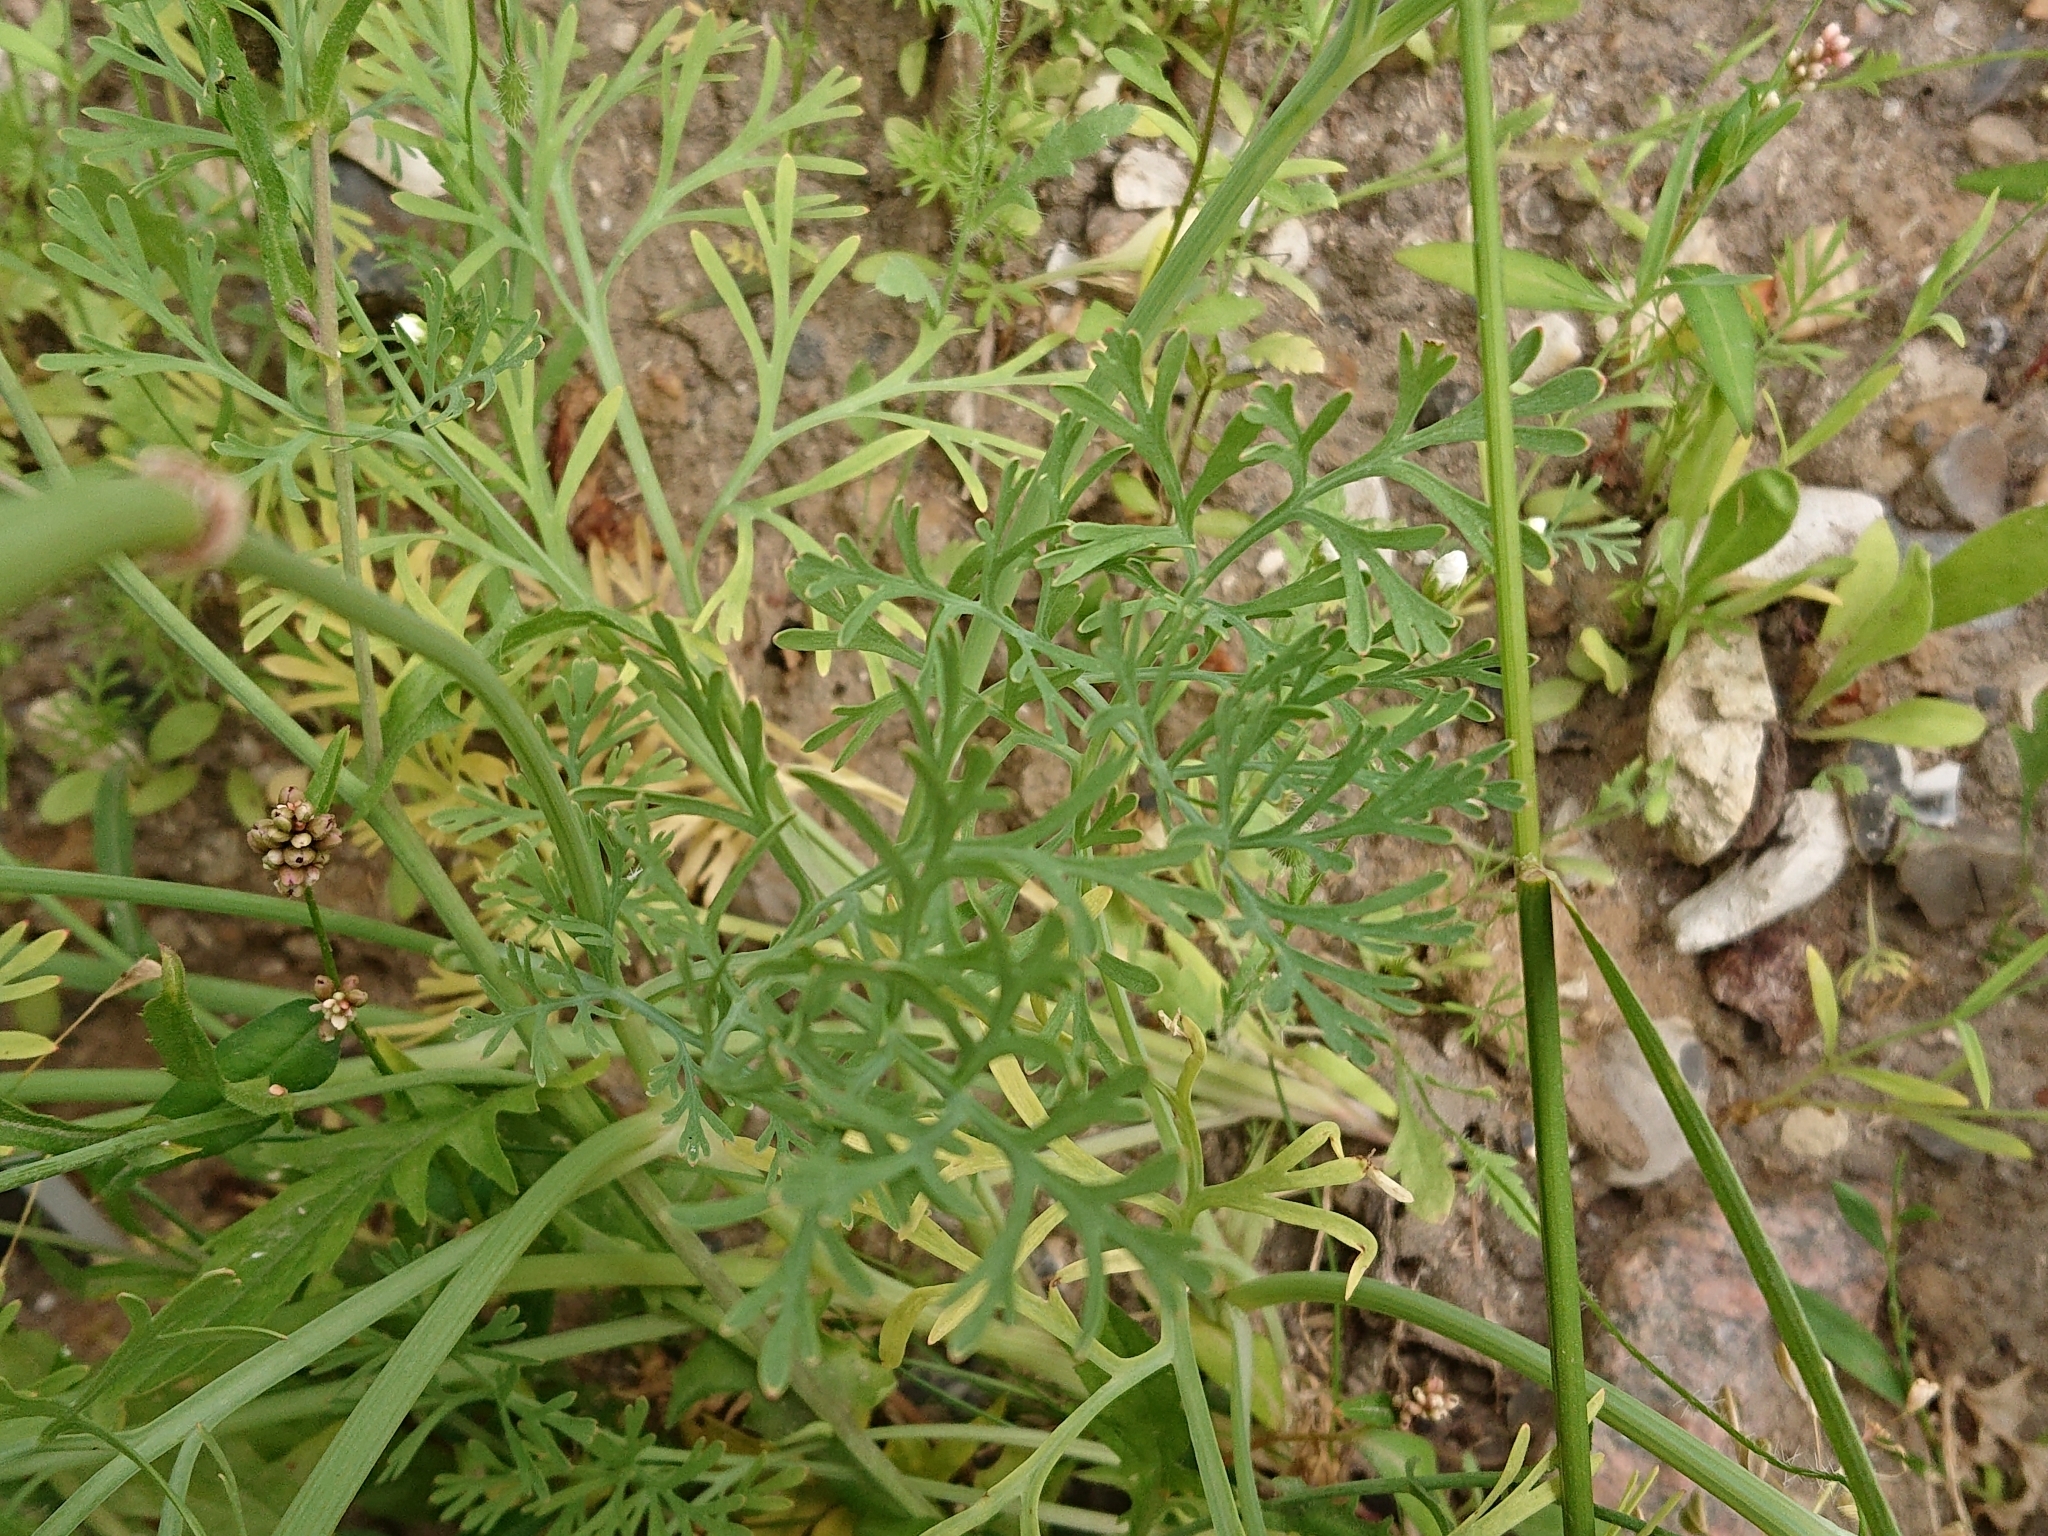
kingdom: Plantae
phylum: Tracheophyta
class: Magnoliopsida
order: Ranunculales
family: Papaveraceae
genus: Eschscholzia
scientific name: Eschscholzia californica
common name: California poppy
